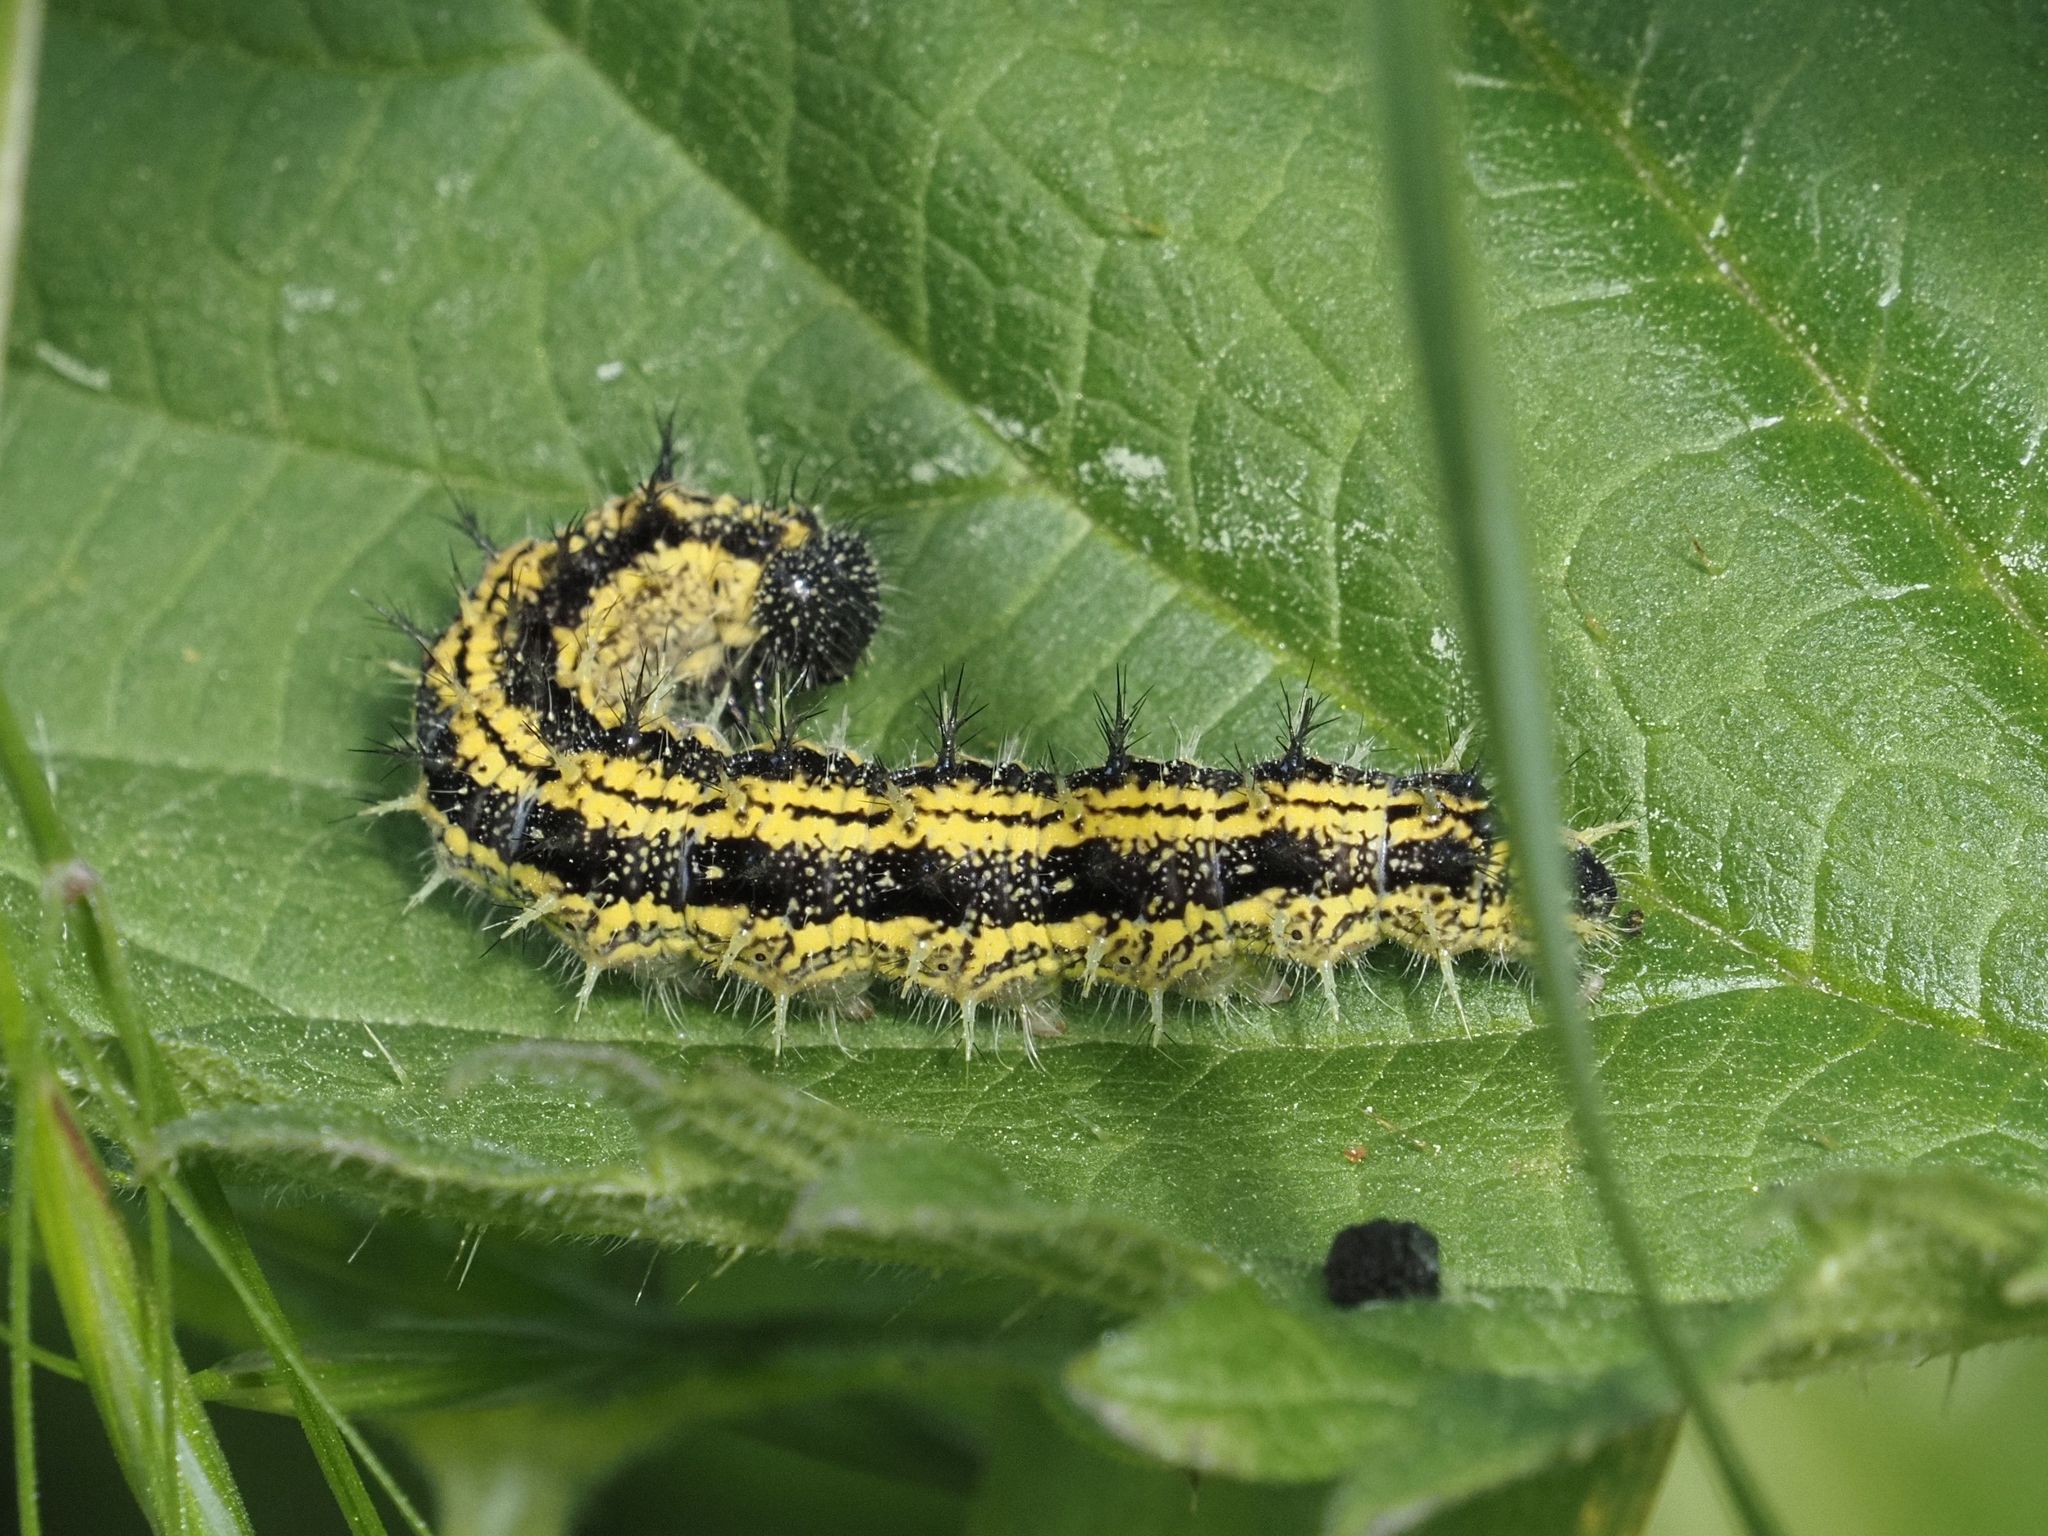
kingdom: Animalia
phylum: Arthropoda
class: Insecta
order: Lepidoptera
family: Nymphalidae
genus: Aglais
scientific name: Aglais urticae
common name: Small tortoiseshell
